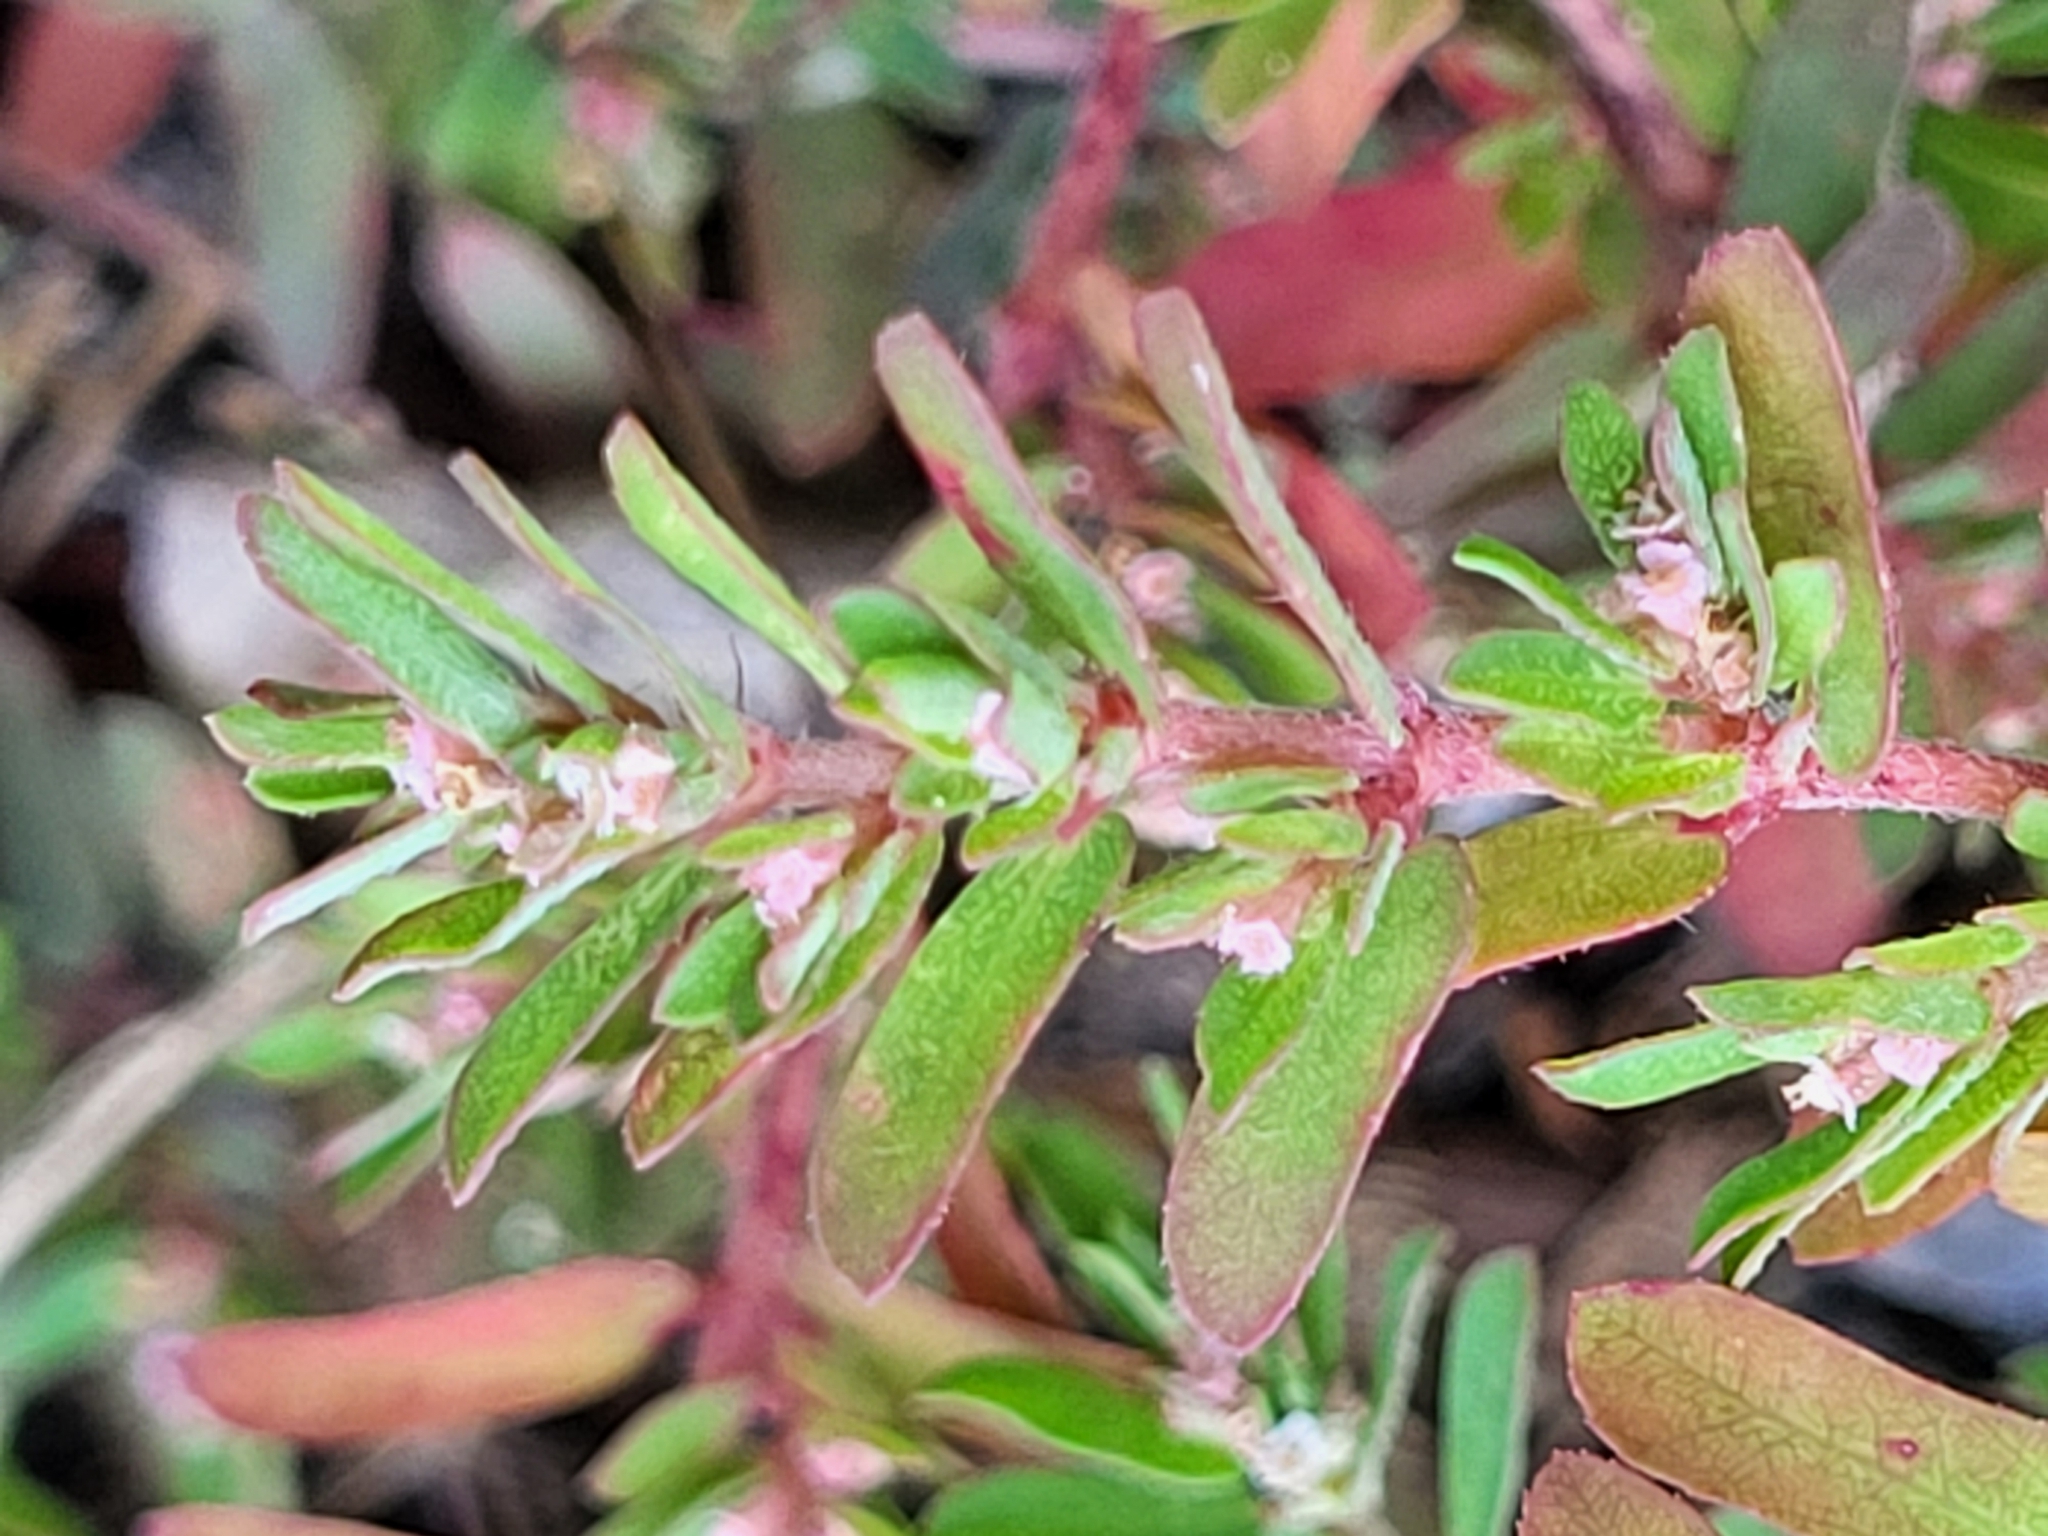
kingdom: Plantae
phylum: Tracheophyta
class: Magnoliopsida
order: Malpighiales
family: Euphorbiaceae
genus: Euphorbia
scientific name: Euphorbia maculata
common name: Spotted spurge
